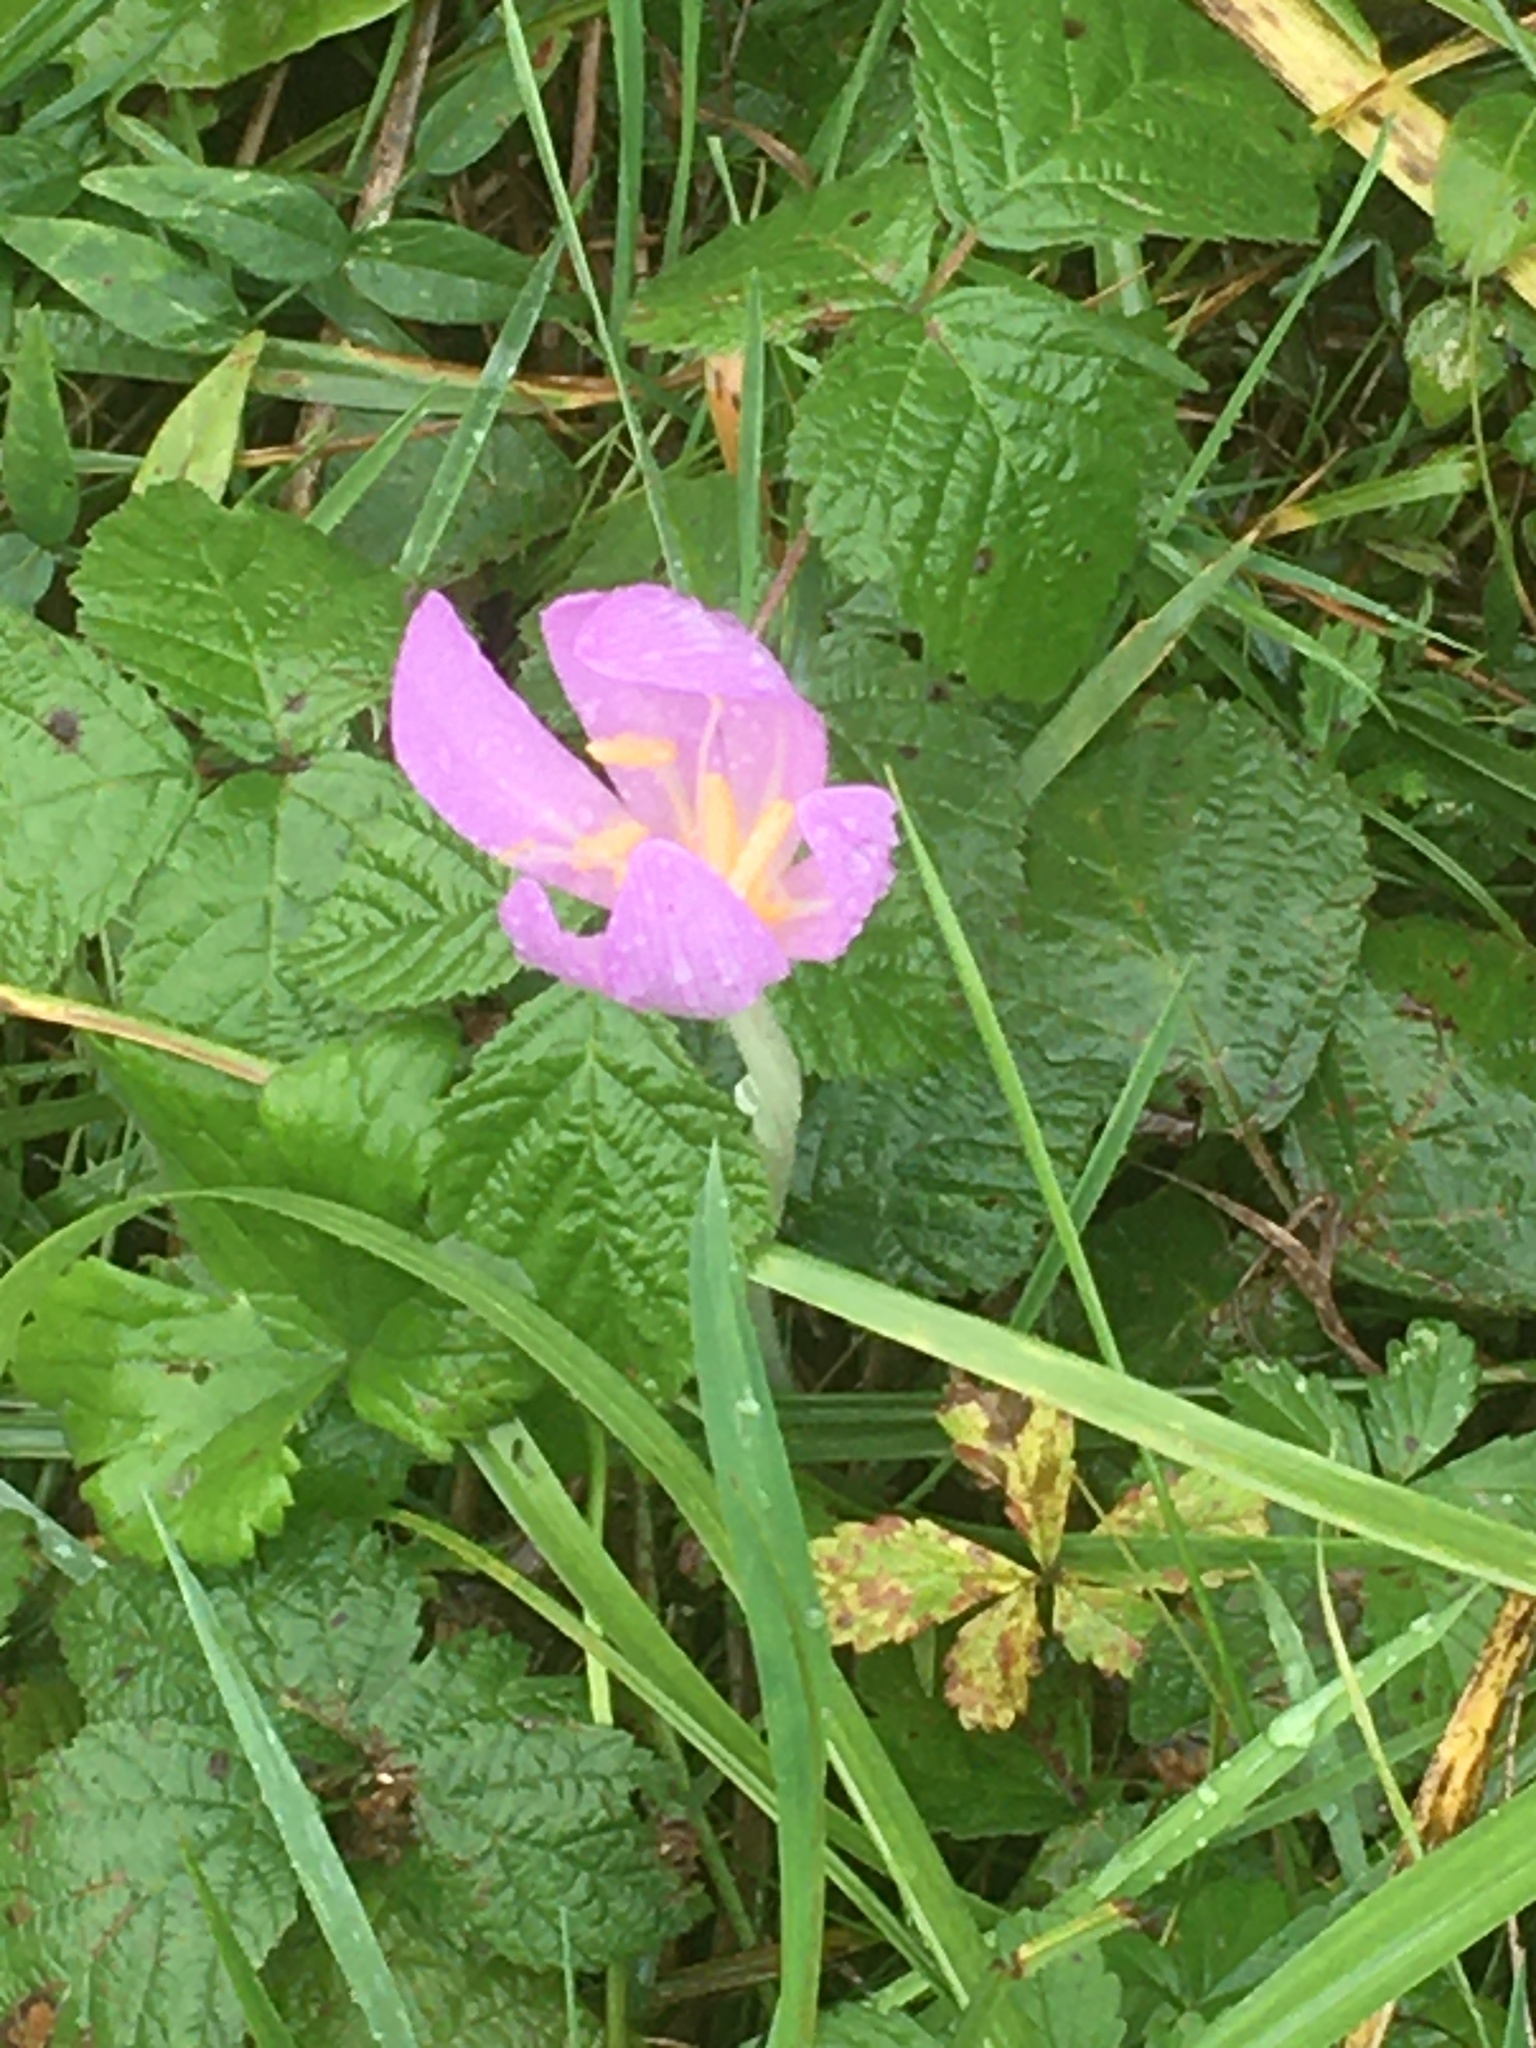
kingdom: Plantae
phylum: Tracheophyta
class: Liliopsida
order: Liliales
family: Colchicaceae
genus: Colchicum
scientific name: Colchicum autumnale
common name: Autumn crocus
